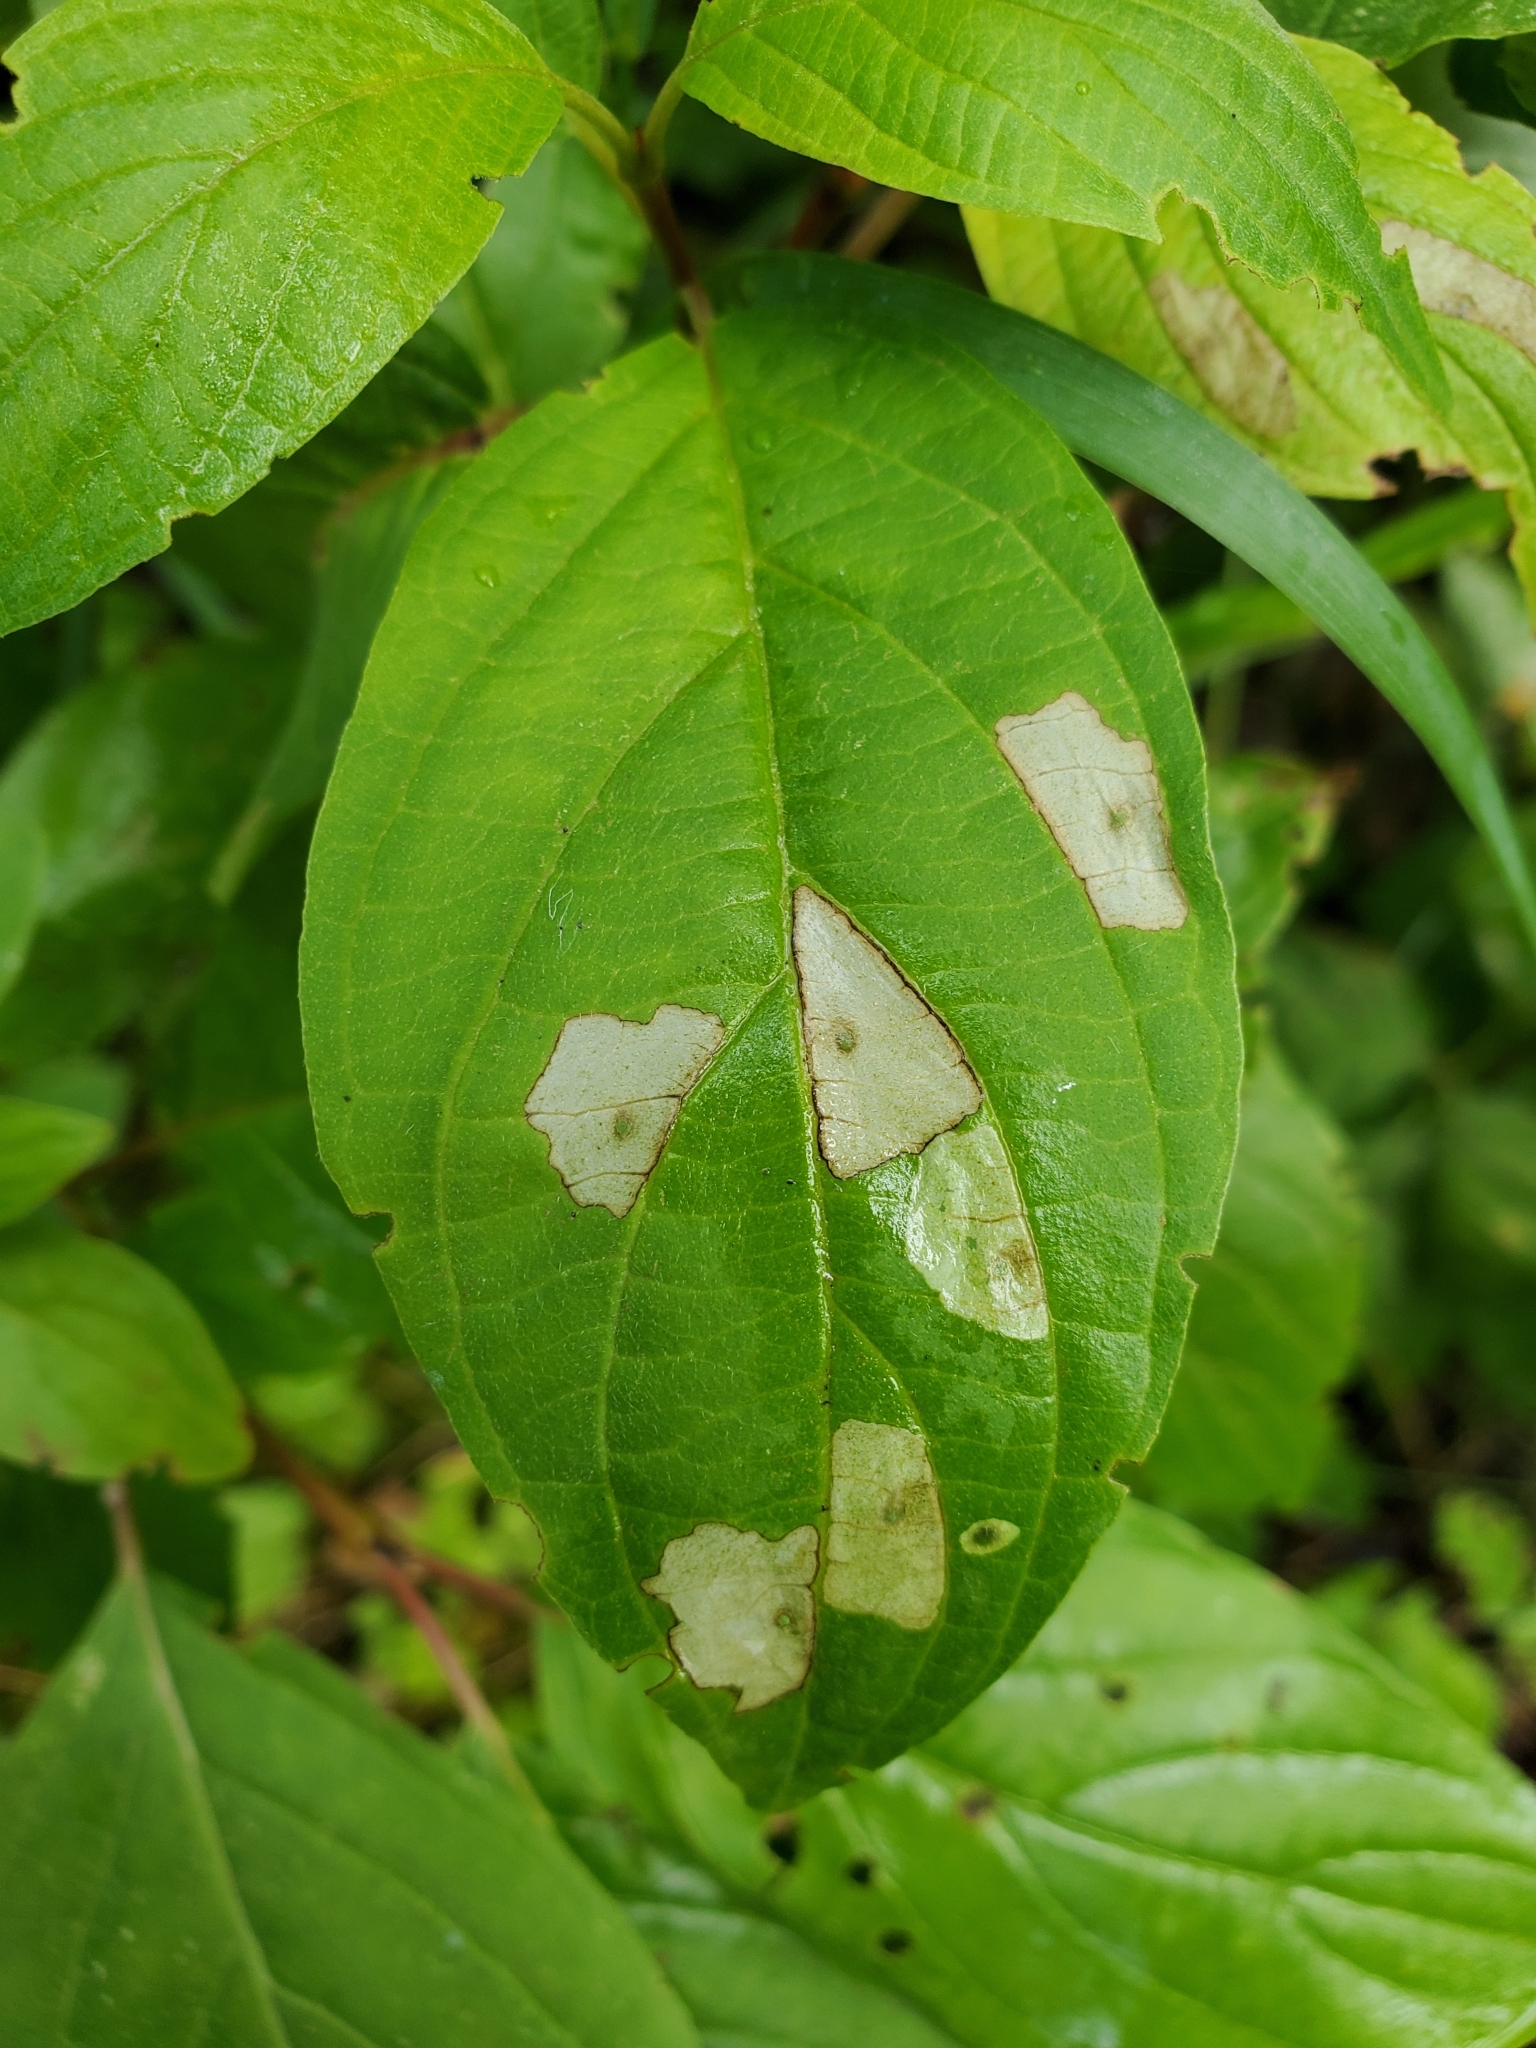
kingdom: Animalia
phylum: Arthropoda
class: Insecta
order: Lepidoptera
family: Coleophoridae
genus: Coleophora
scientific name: Coleophora cornella
